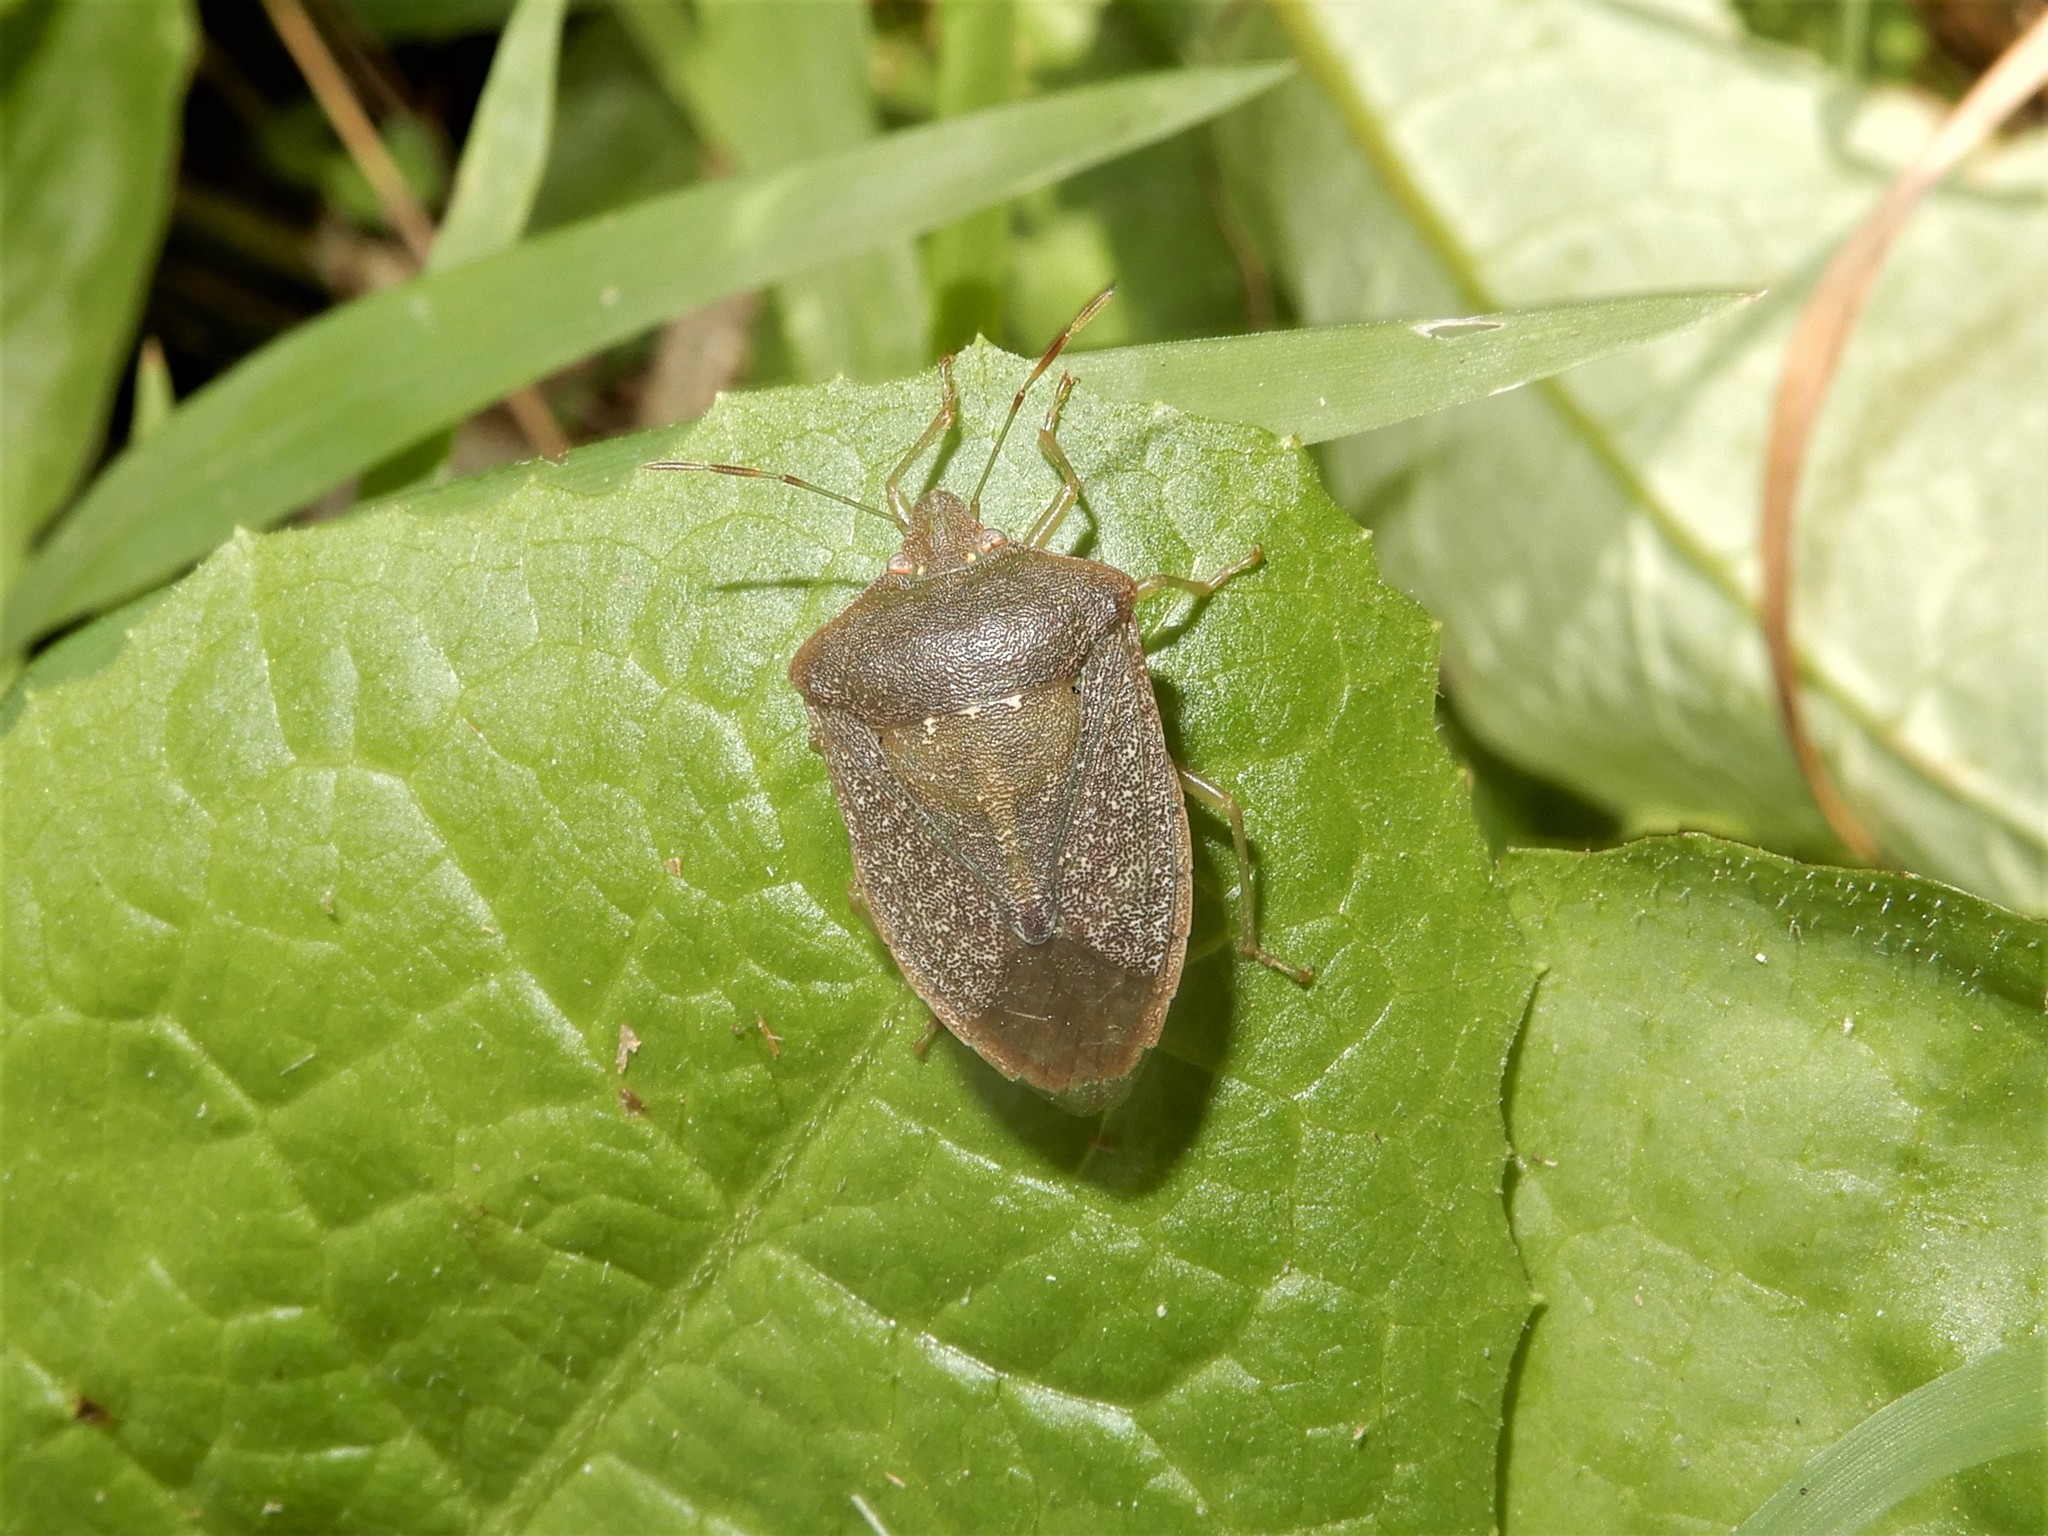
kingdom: Animalia
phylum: Arthropoda
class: Insecta
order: Hemiptera
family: Pentatomidae
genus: Nezara
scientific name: Nezara viridula
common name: Southern green stink bug
